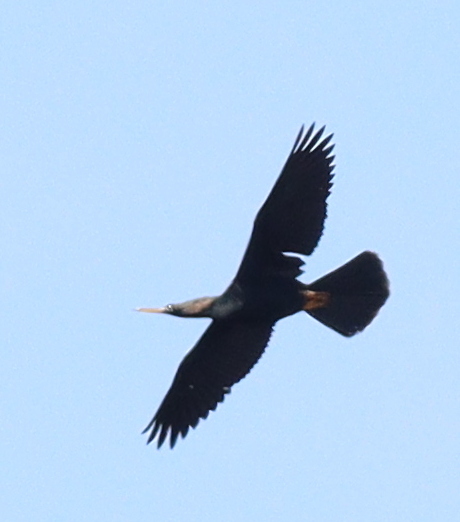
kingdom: Animalia
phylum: Chordata
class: Aves
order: Suliformes
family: Anhingidae
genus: Anhinga
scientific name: Anhinga anhinga
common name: Anhinga
